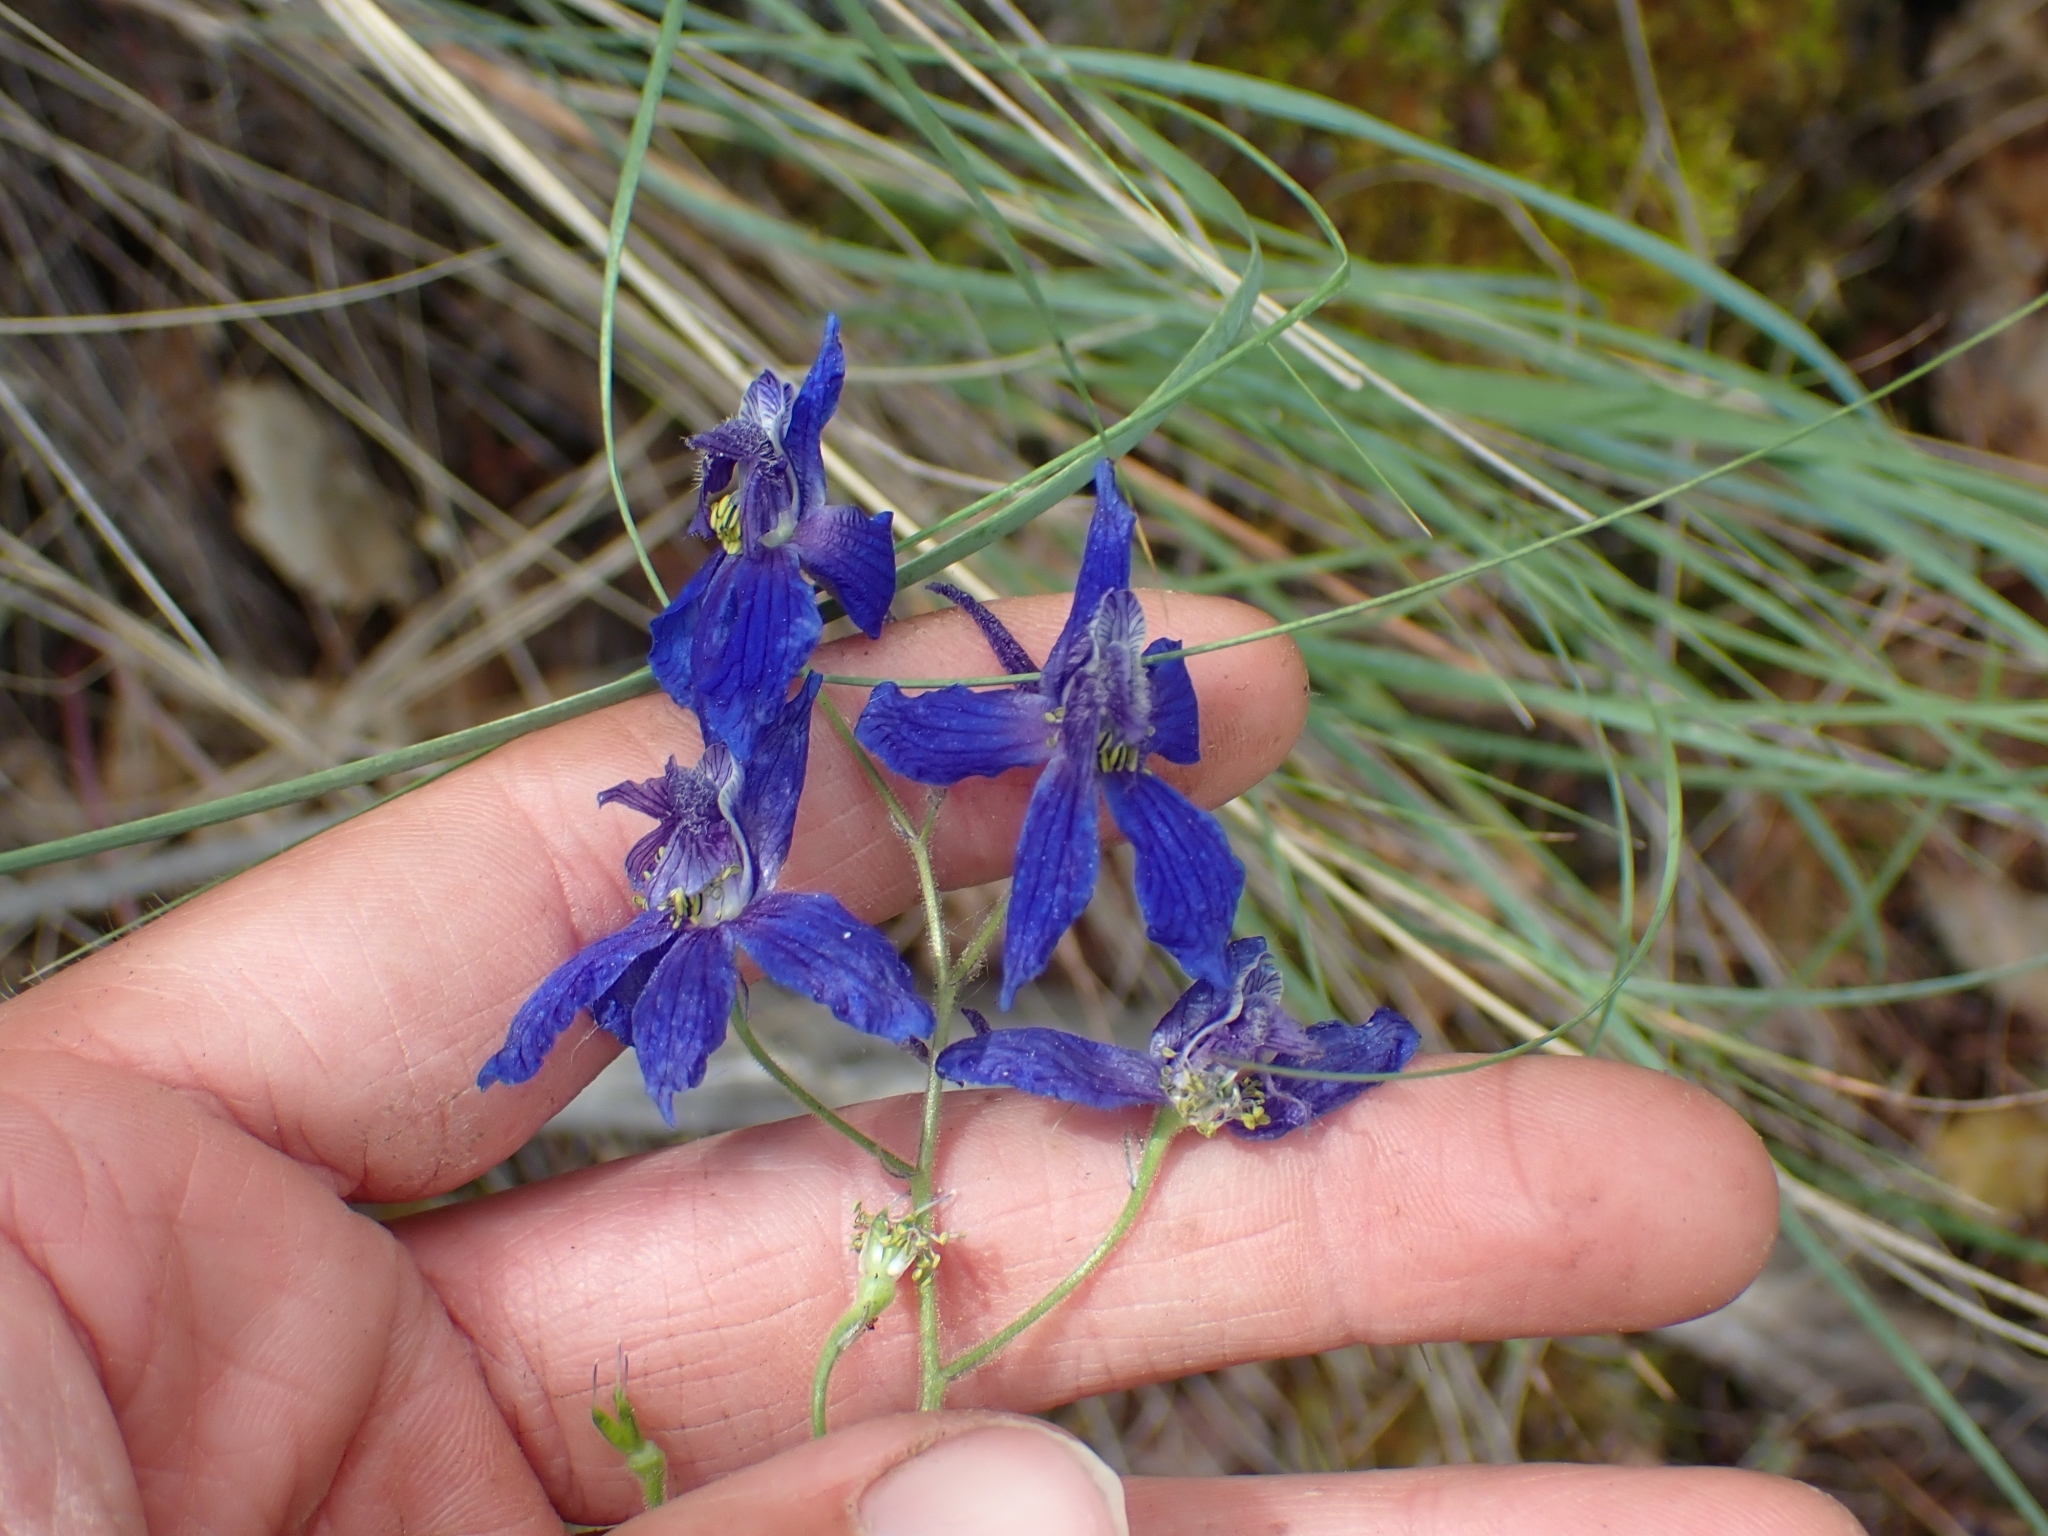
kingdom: Plantae
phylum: Tracheophyta
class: Magnoliopsida
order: Ranunculales
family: Ranunculaceae
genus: Delphinium
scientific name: Delphinium nuttallianum
